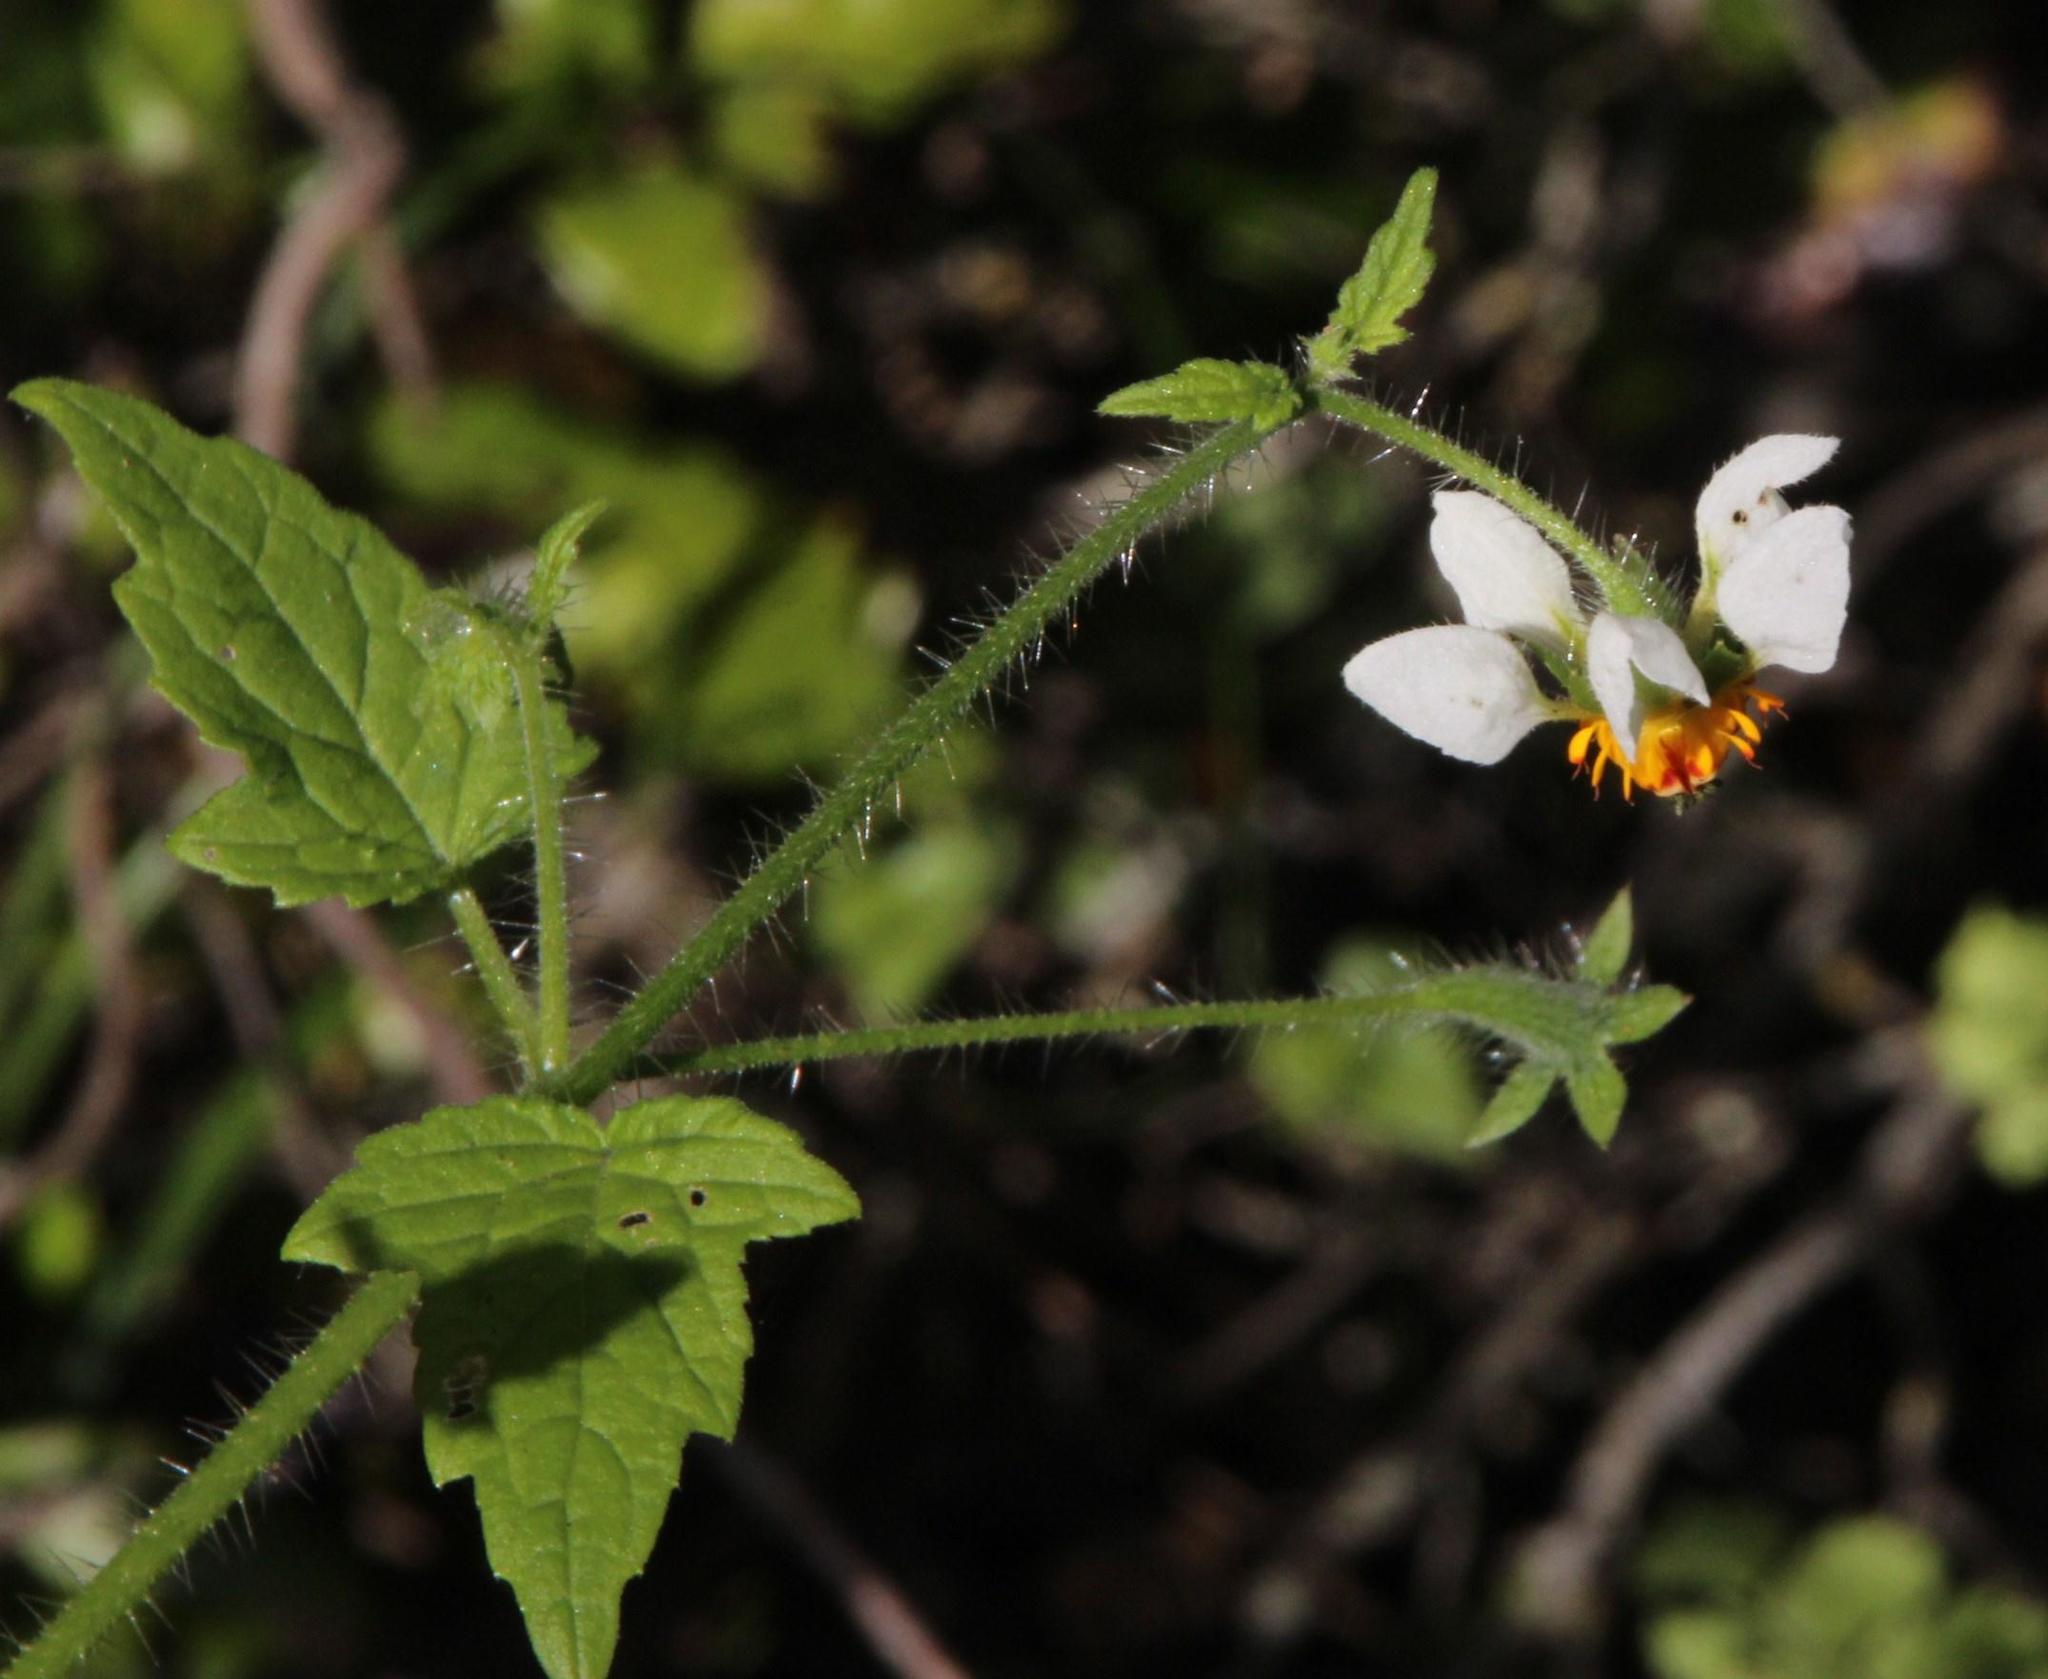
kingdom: Plantae
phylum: Tracheophyta
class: Magnoliopsida
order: Cornales
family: Loasaceae
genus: Loasa
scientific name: Loasa triloba
